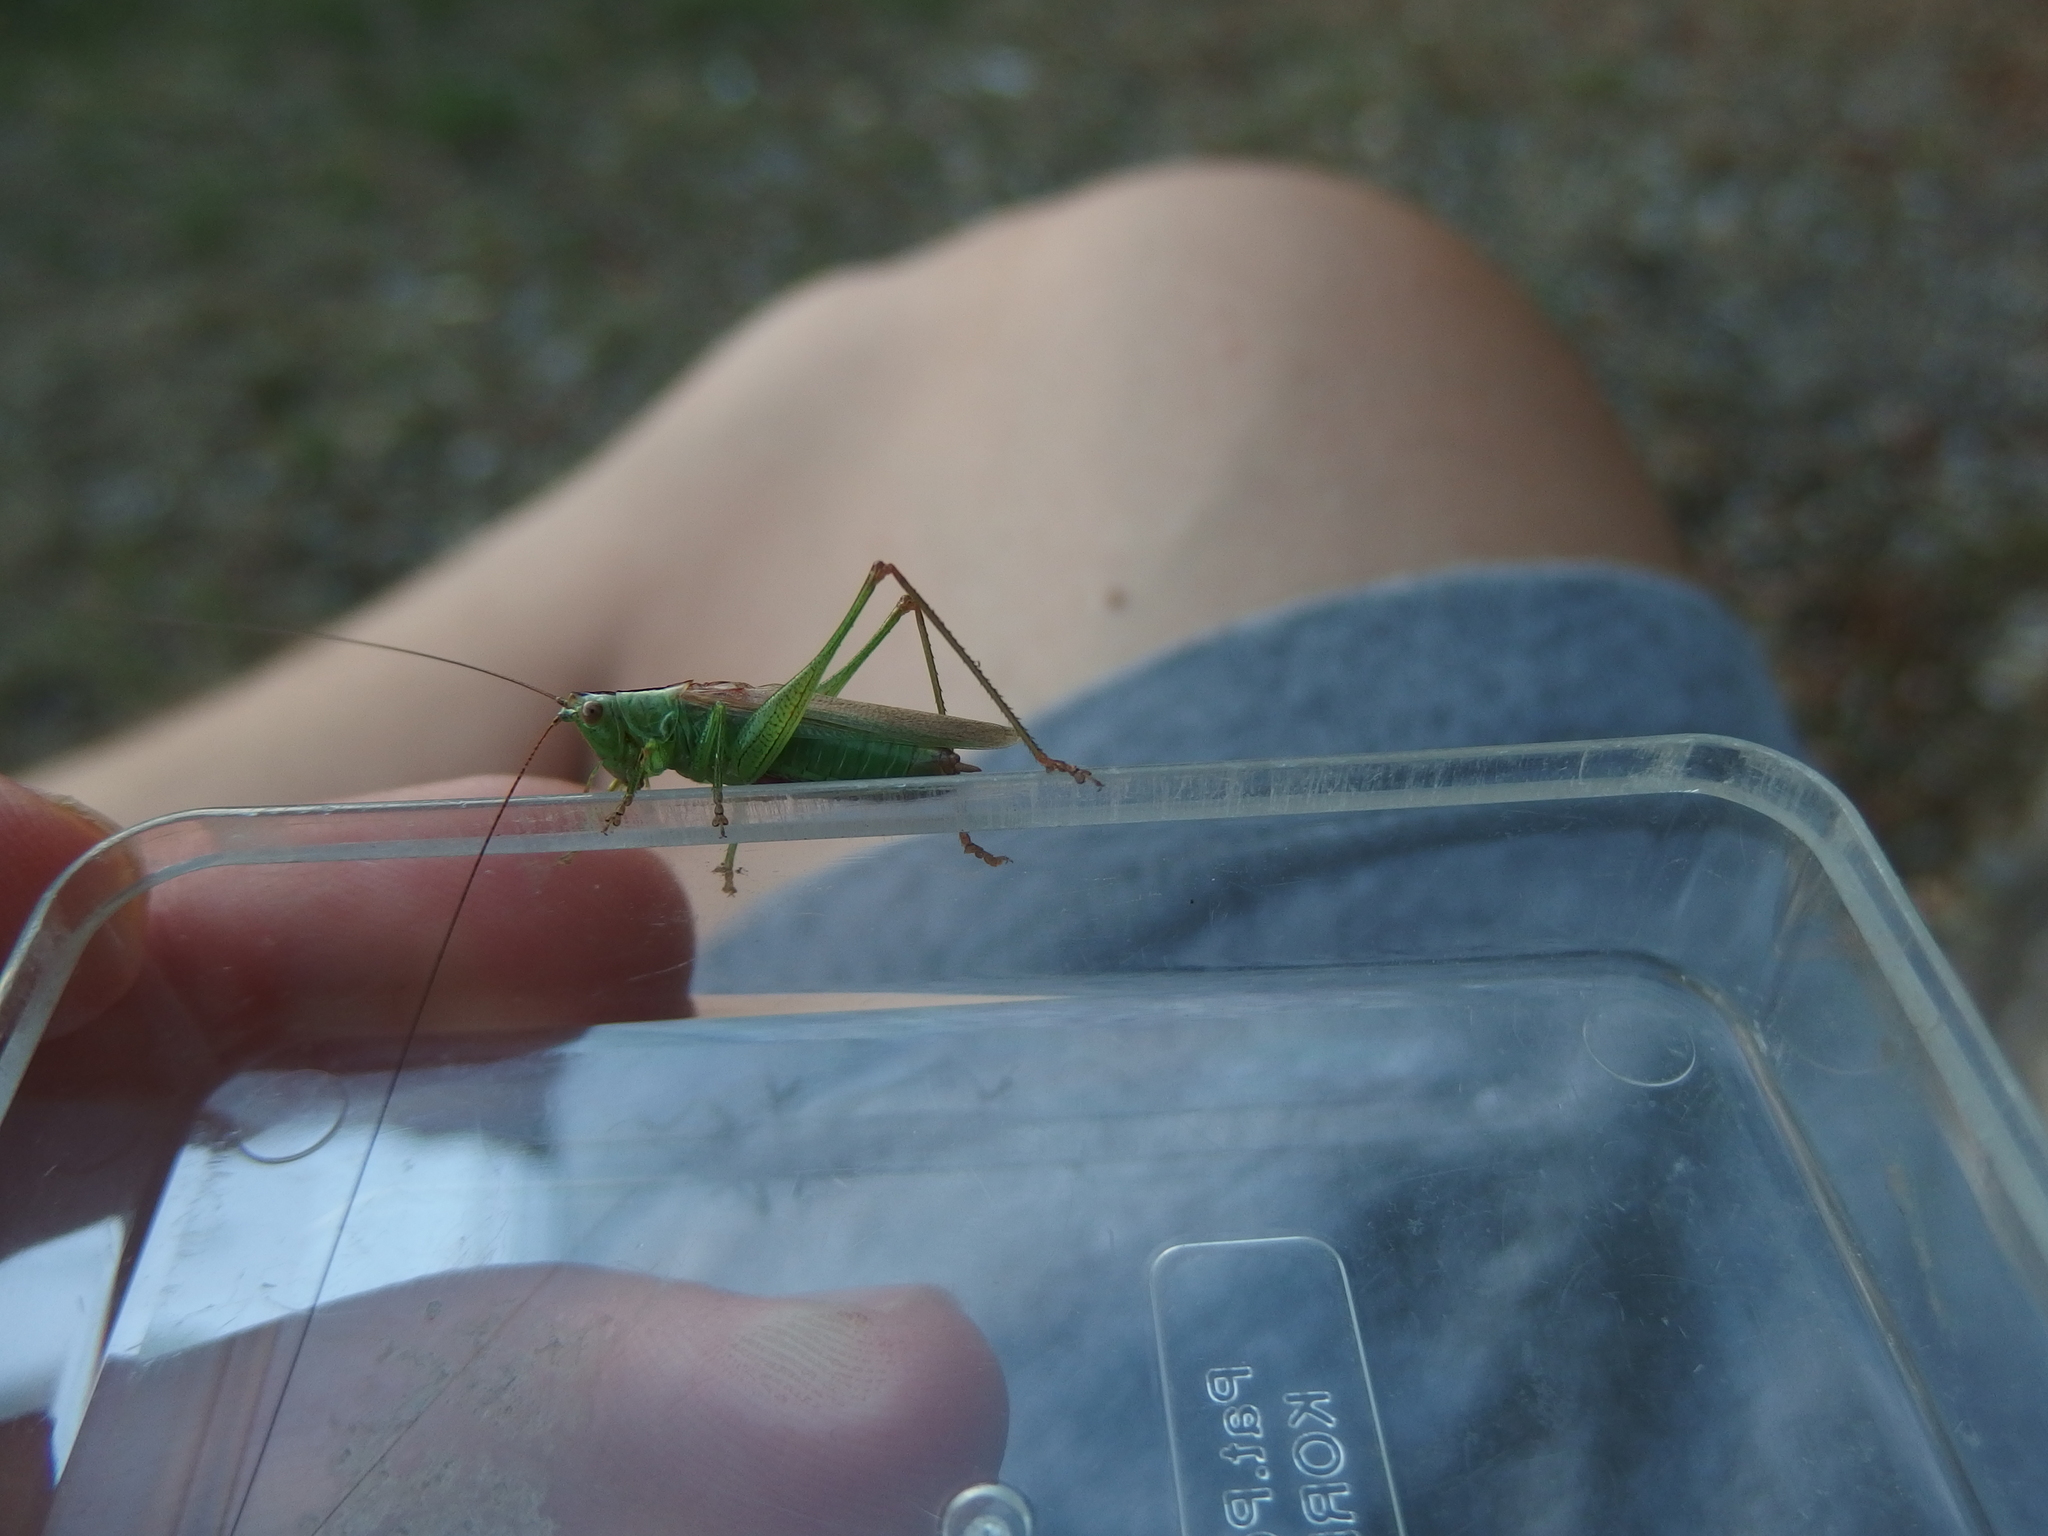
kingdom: Animalia
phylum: Arthropoda
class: Insecta
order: Orthoptera
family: Tettigoniidae
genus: Conocephalus
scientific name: Conocephalus fuscus
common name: Long-winged conehead
